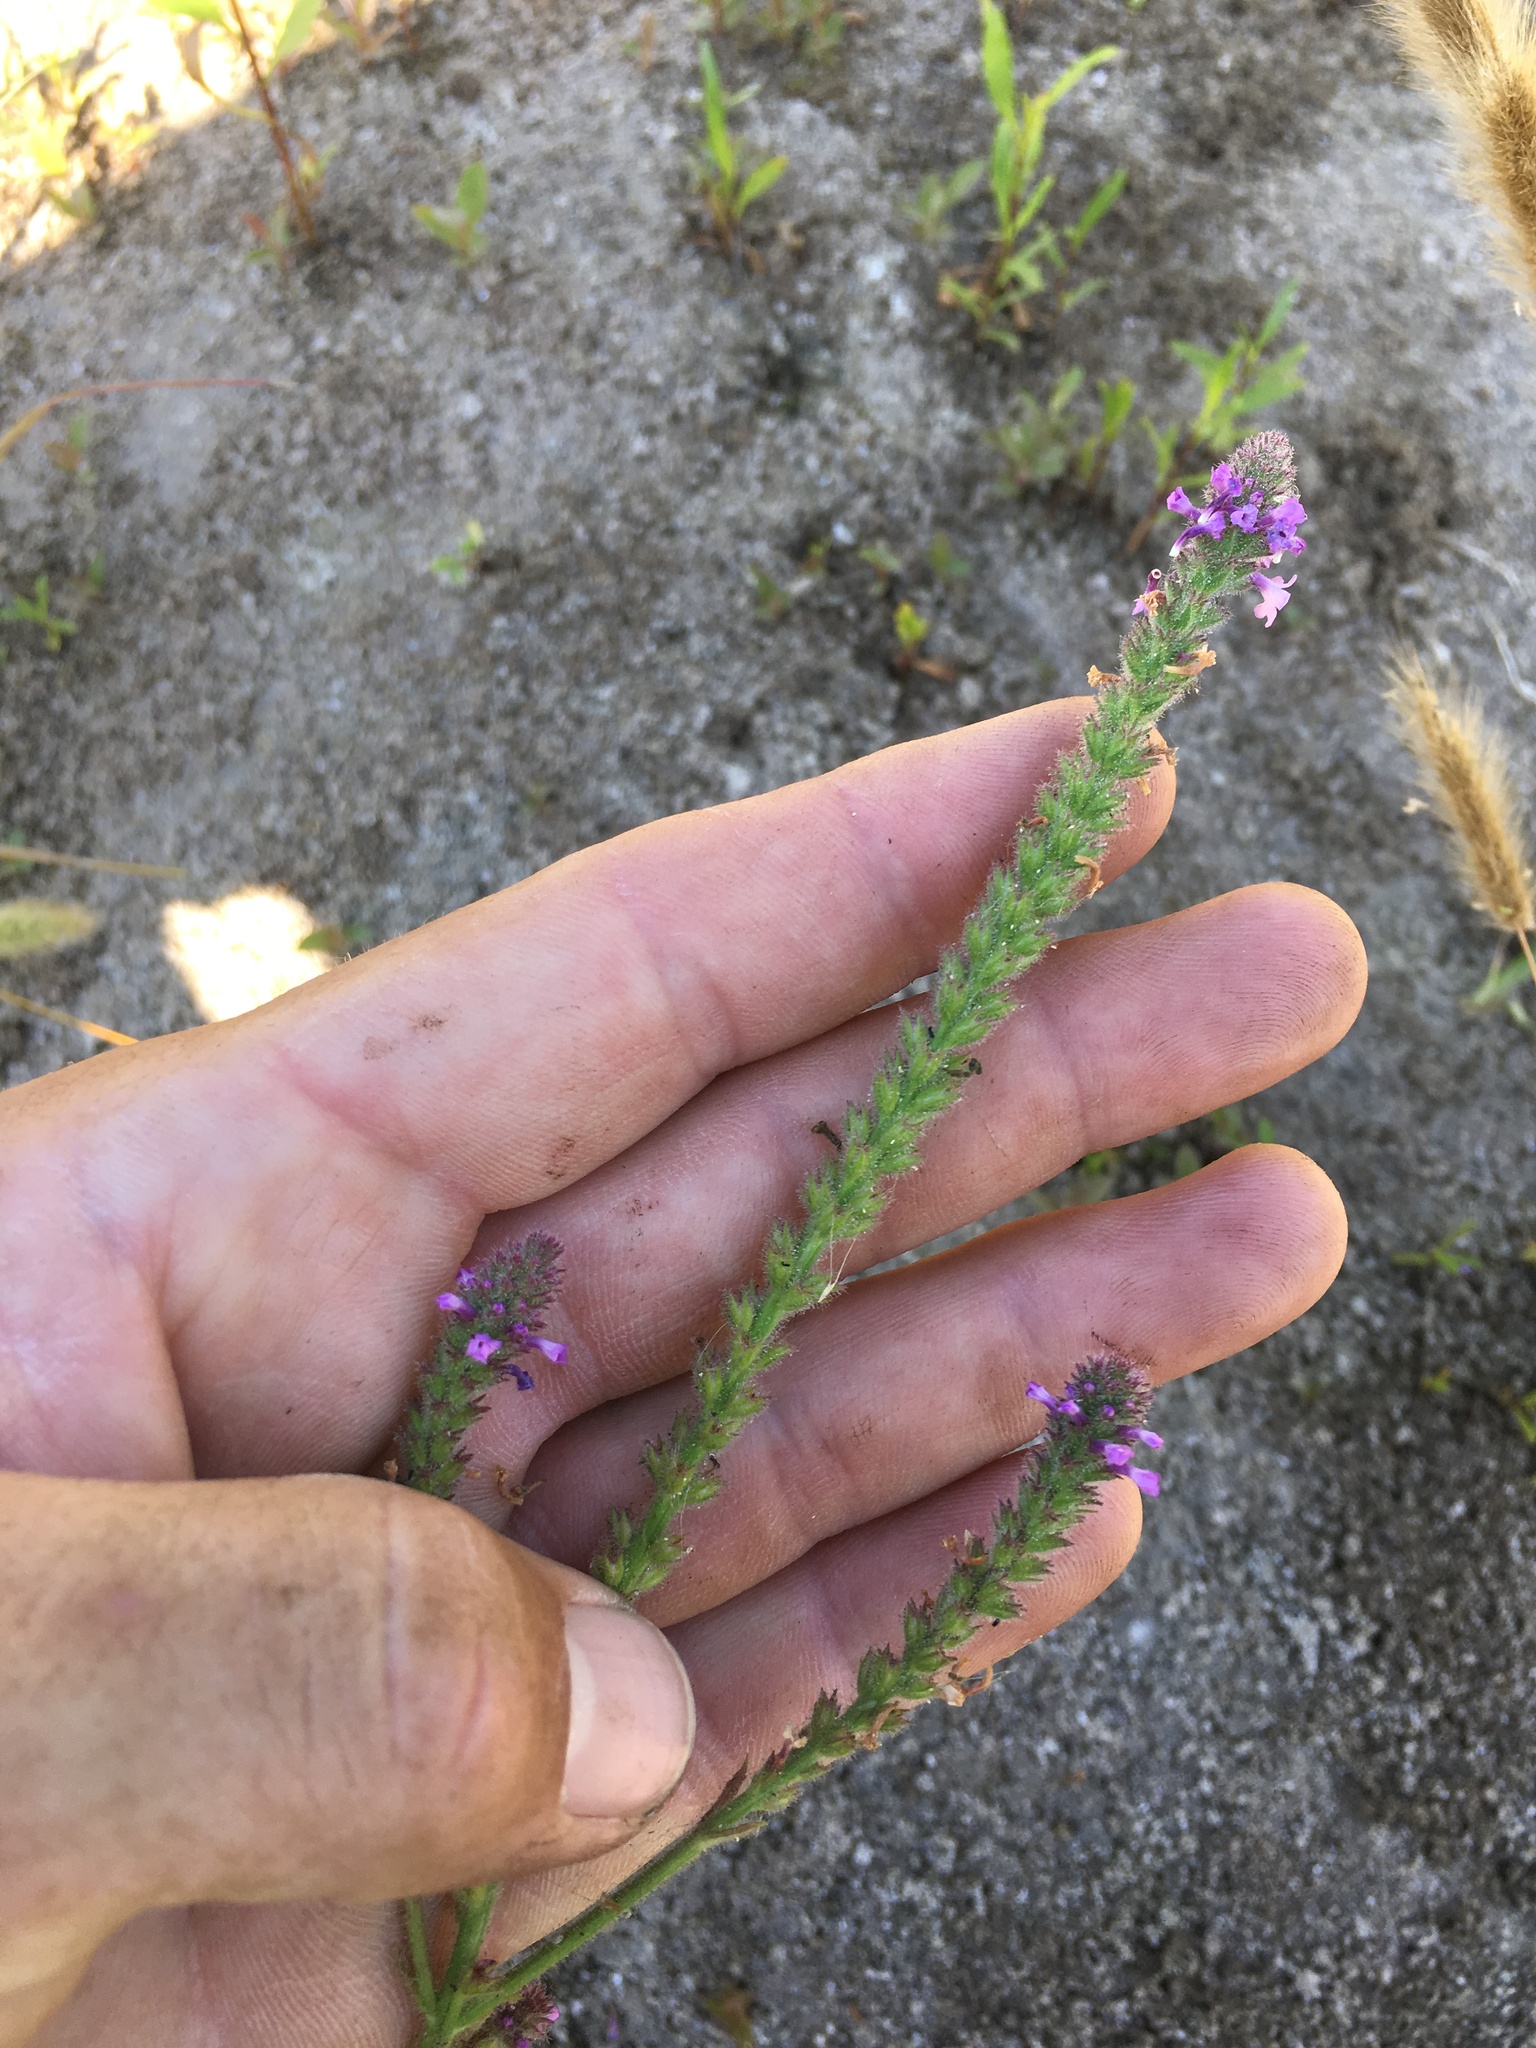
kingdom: Plantae
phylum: Tracheophyta
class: Magnoliopsida
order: Lamiales
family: Verbenaceae
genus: Verbena
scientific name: Verbena lasiostachys
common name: Vervain
